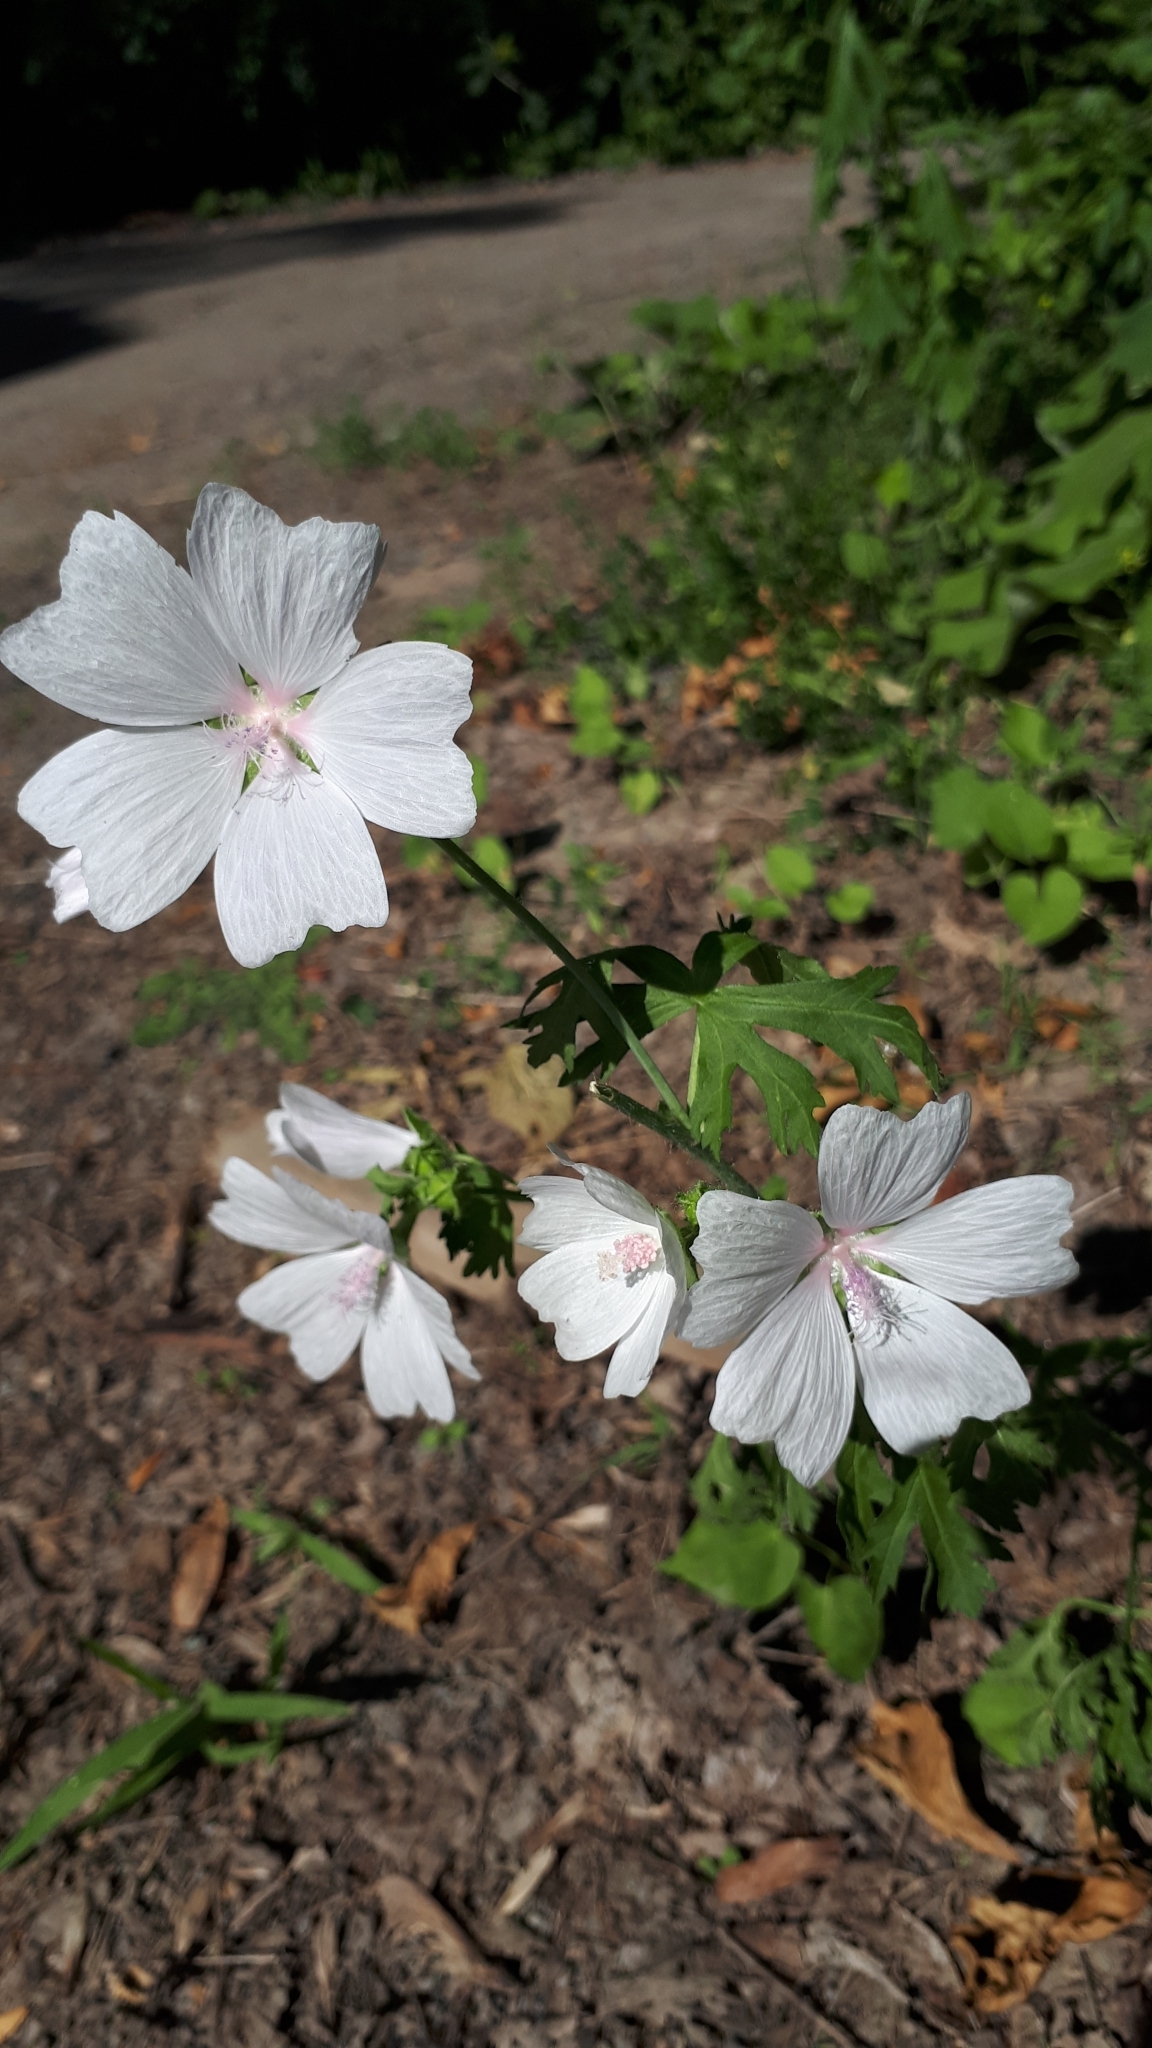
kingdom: Plantae
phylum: Tracheophyta
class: Magnoliopsida
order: Malvales
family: Malvaceae
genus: Malva
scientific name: Malva moschata
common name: Musk mallow
